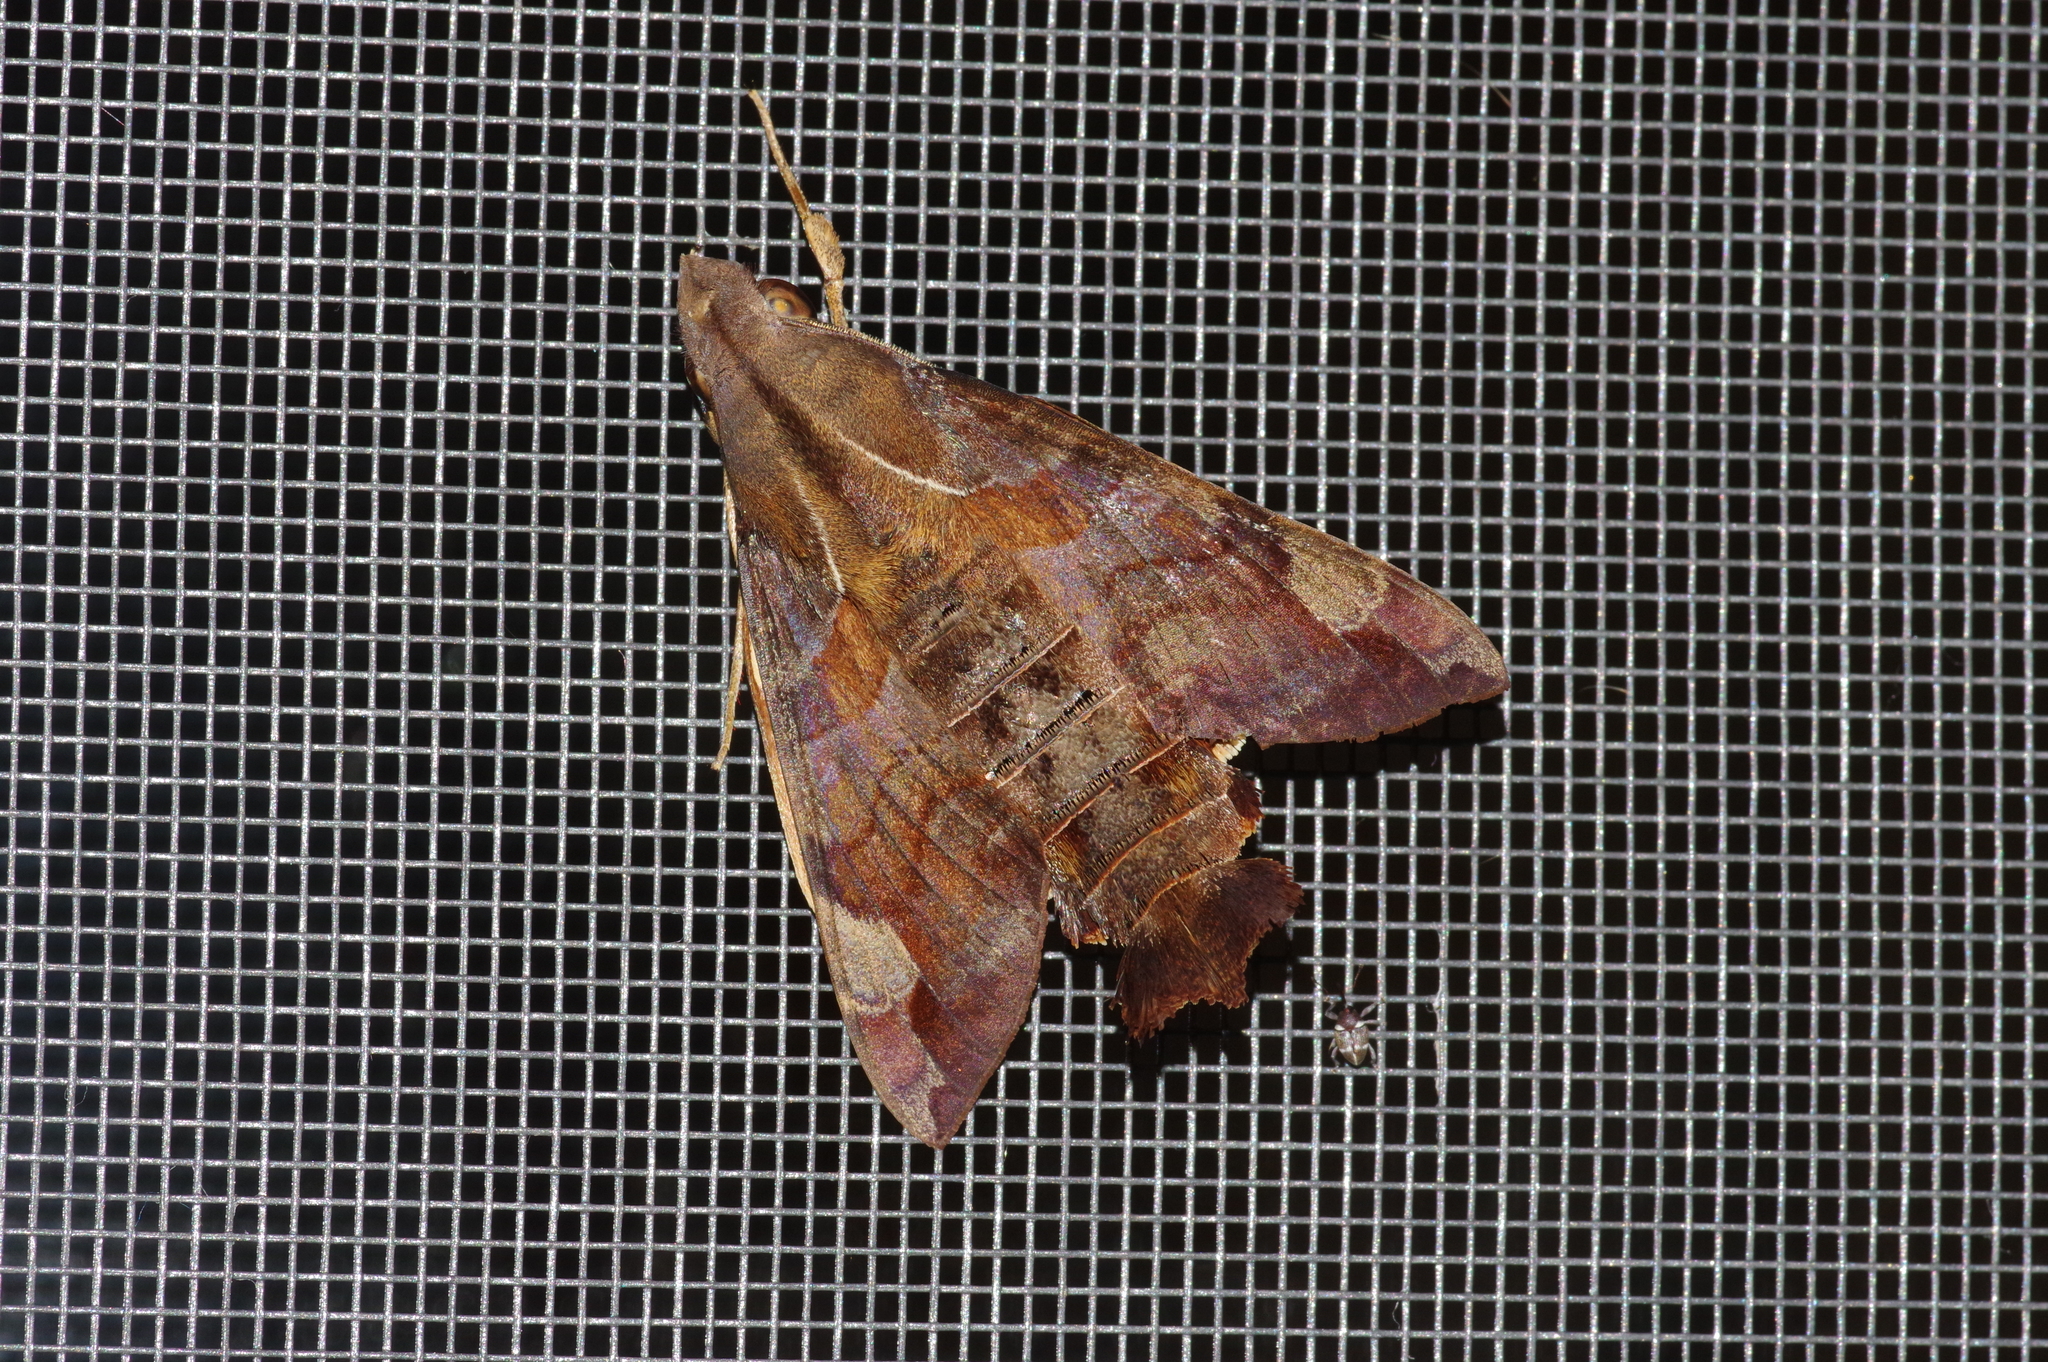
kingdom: Animalia
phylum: Arthropoda
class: Insecta
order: Lepidoptera
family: Sphingidae
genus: Macroglossum
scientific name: Macroglossum saga
